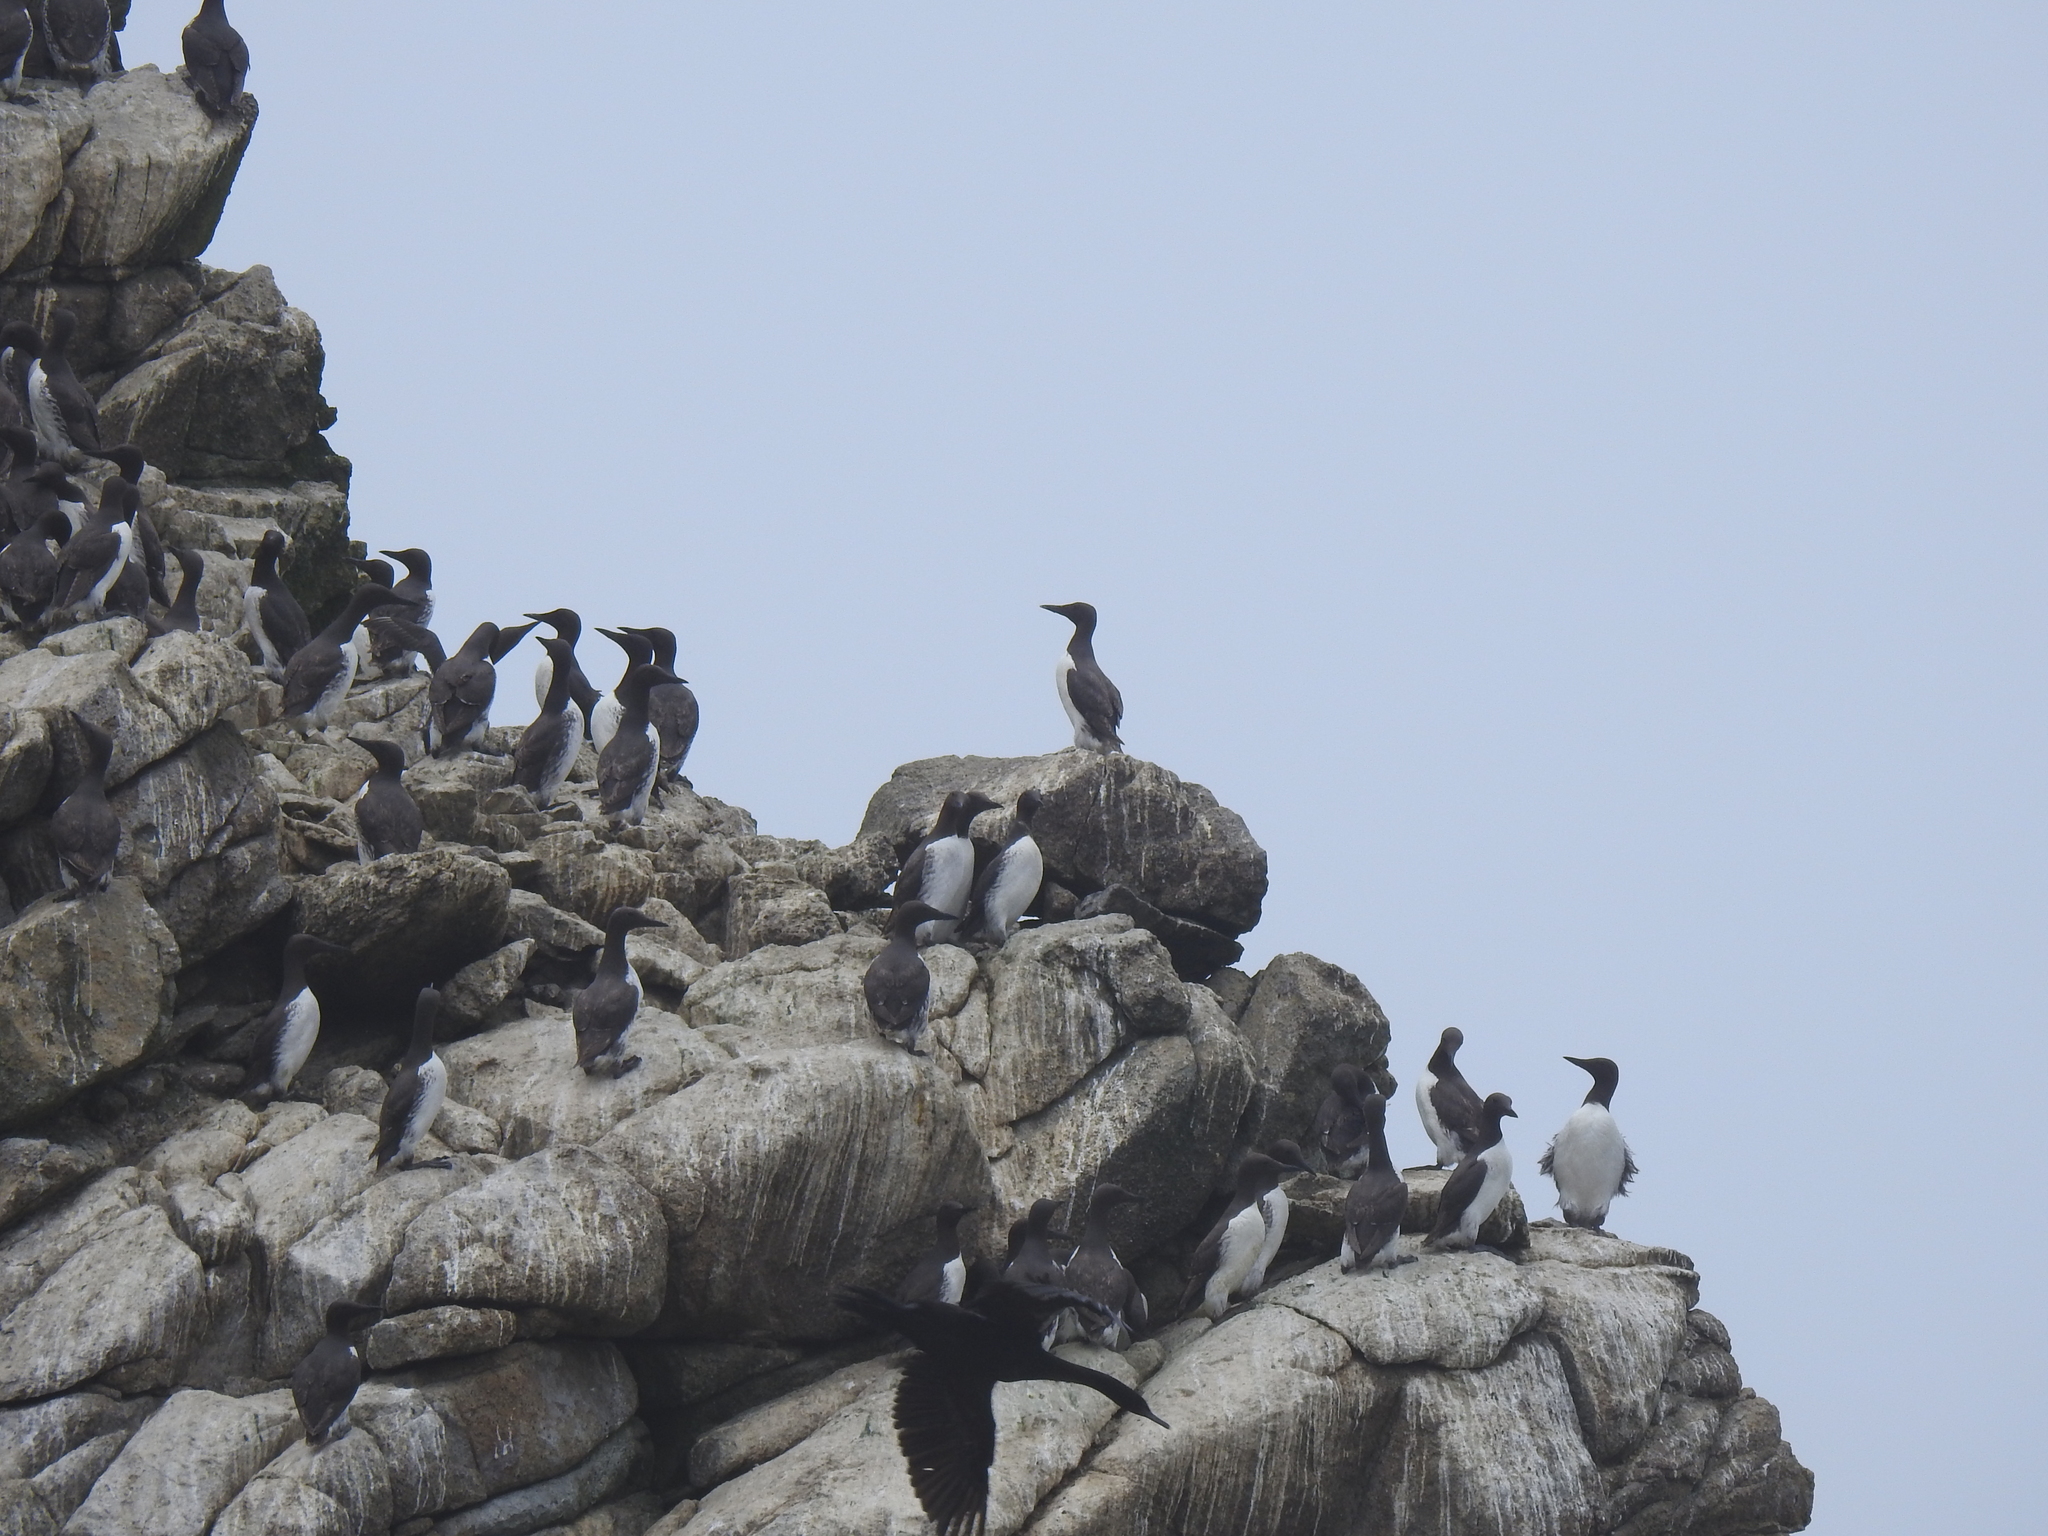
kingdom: Animalia
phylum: Chordata
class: Aves
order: Charadriiformes
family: Alcidae
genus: Uria
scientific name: Uria aalge
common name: Common murre
